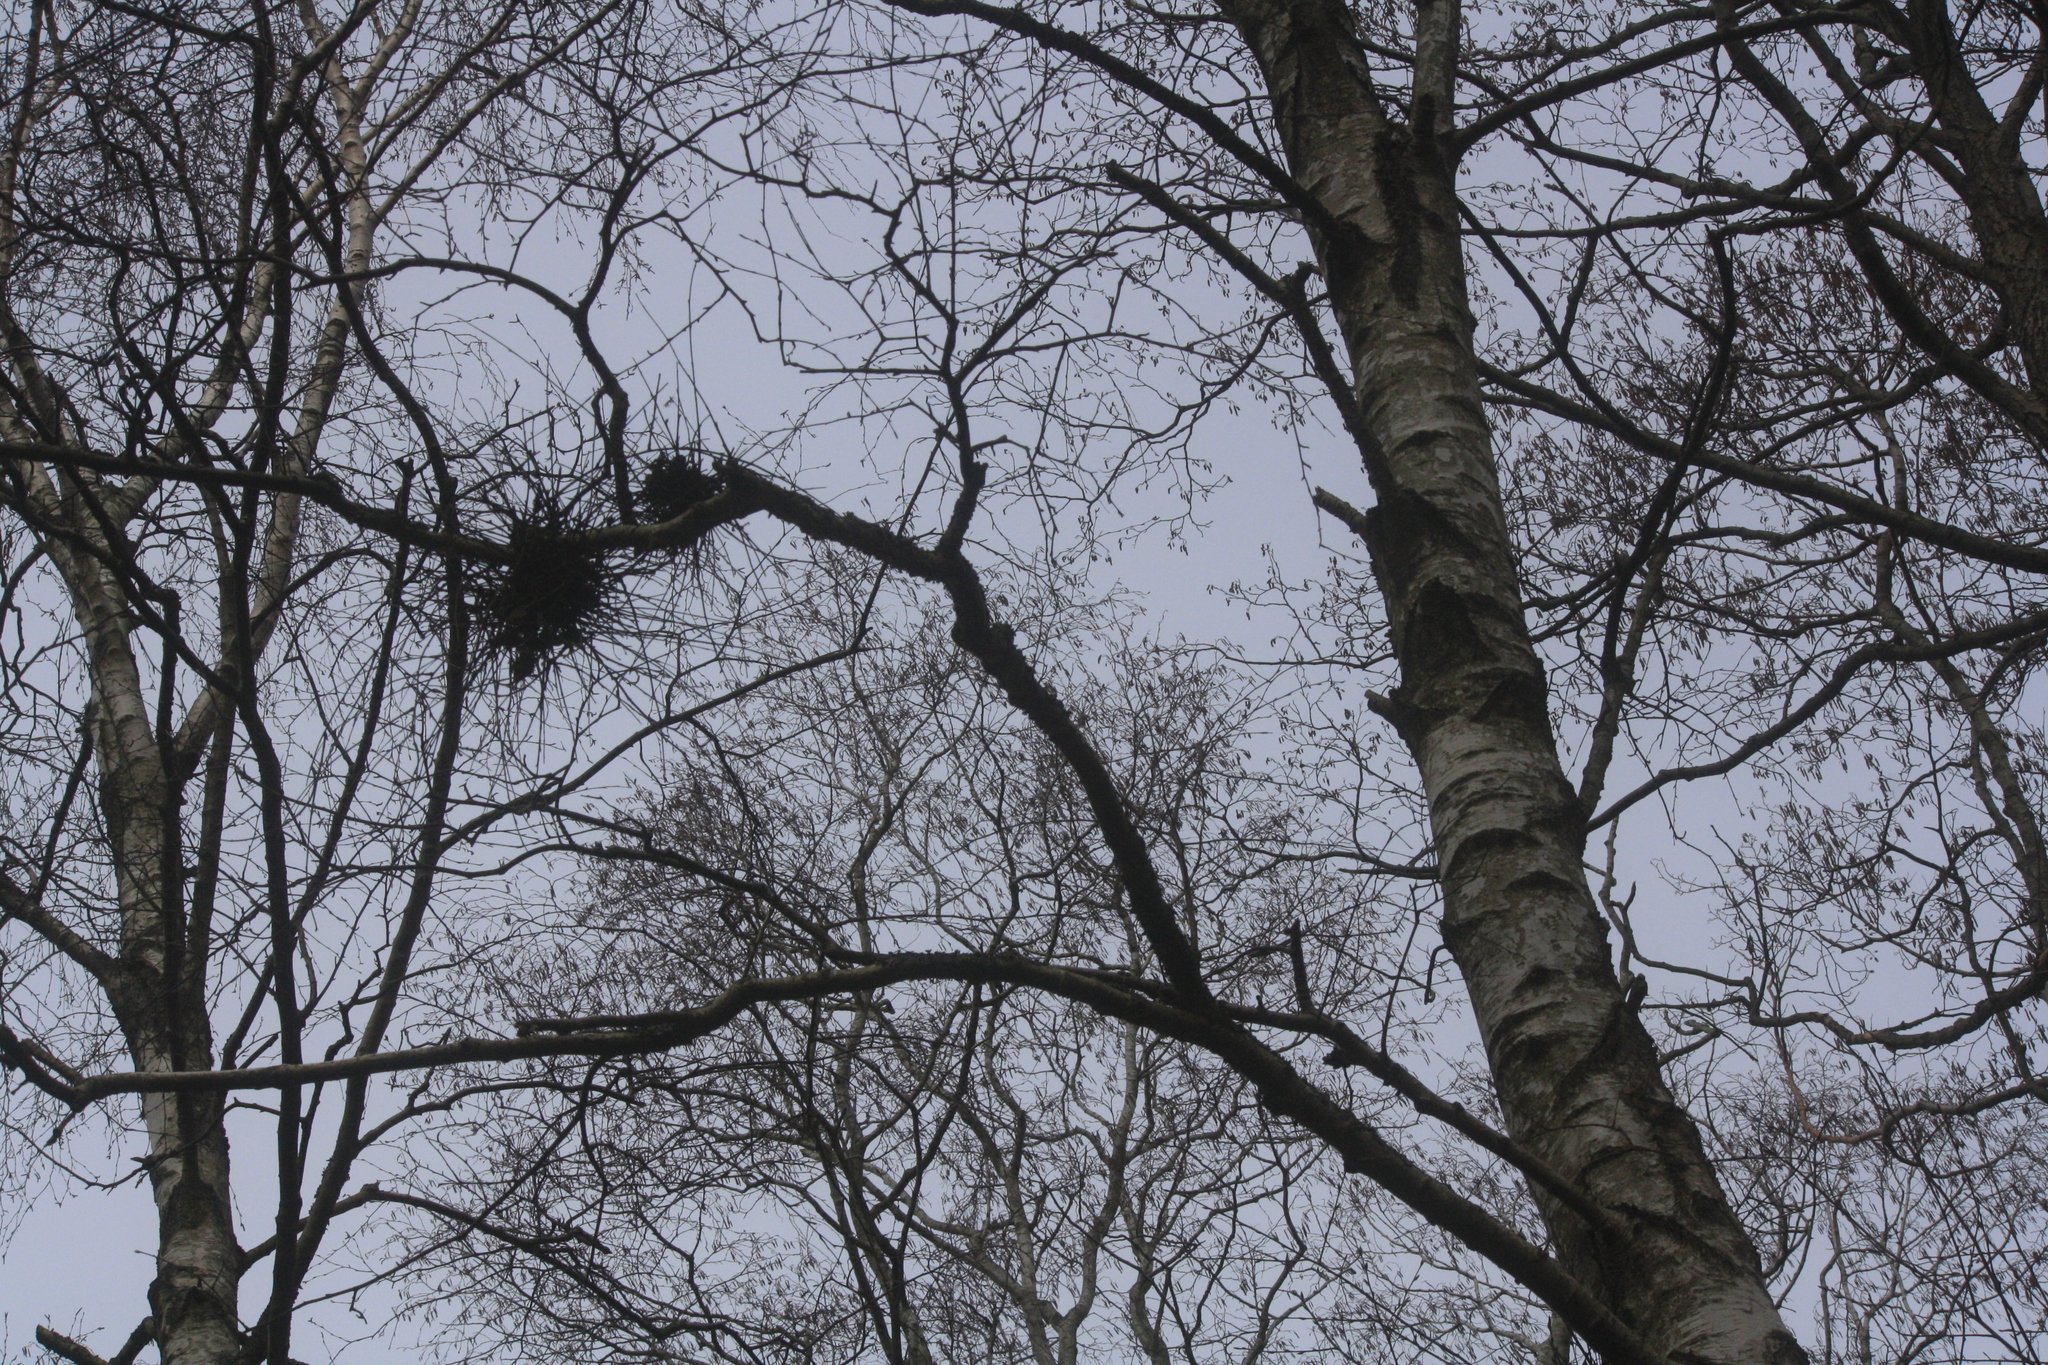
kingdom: Fungi
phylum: Ascomycota
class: Taphrinomycetes
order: Taphrinales
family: Taphrinaceae
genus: Taphrina
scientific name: Taphrina betulina
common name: Birch besom
